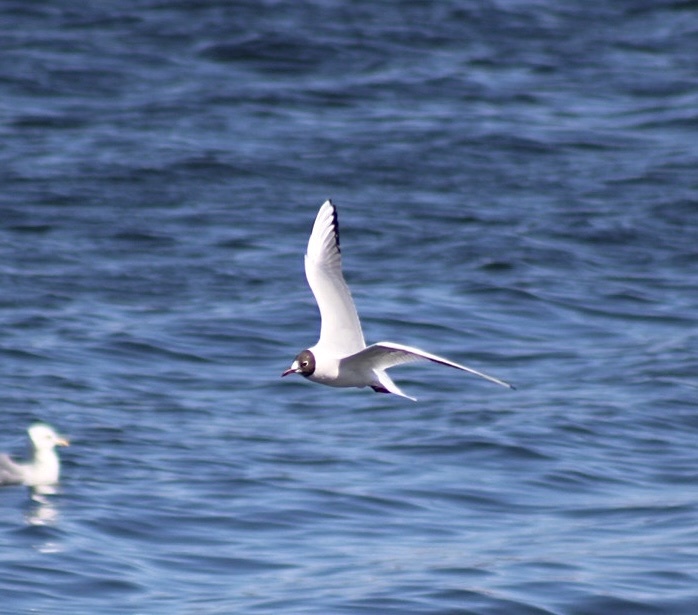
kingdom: Animalia
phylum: Chordata
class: Aves
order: Charadriiformes
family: Laridae
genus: Chroicocephalus
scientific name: Chroicocephalus philadelphia
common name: Bonaparte's gull
